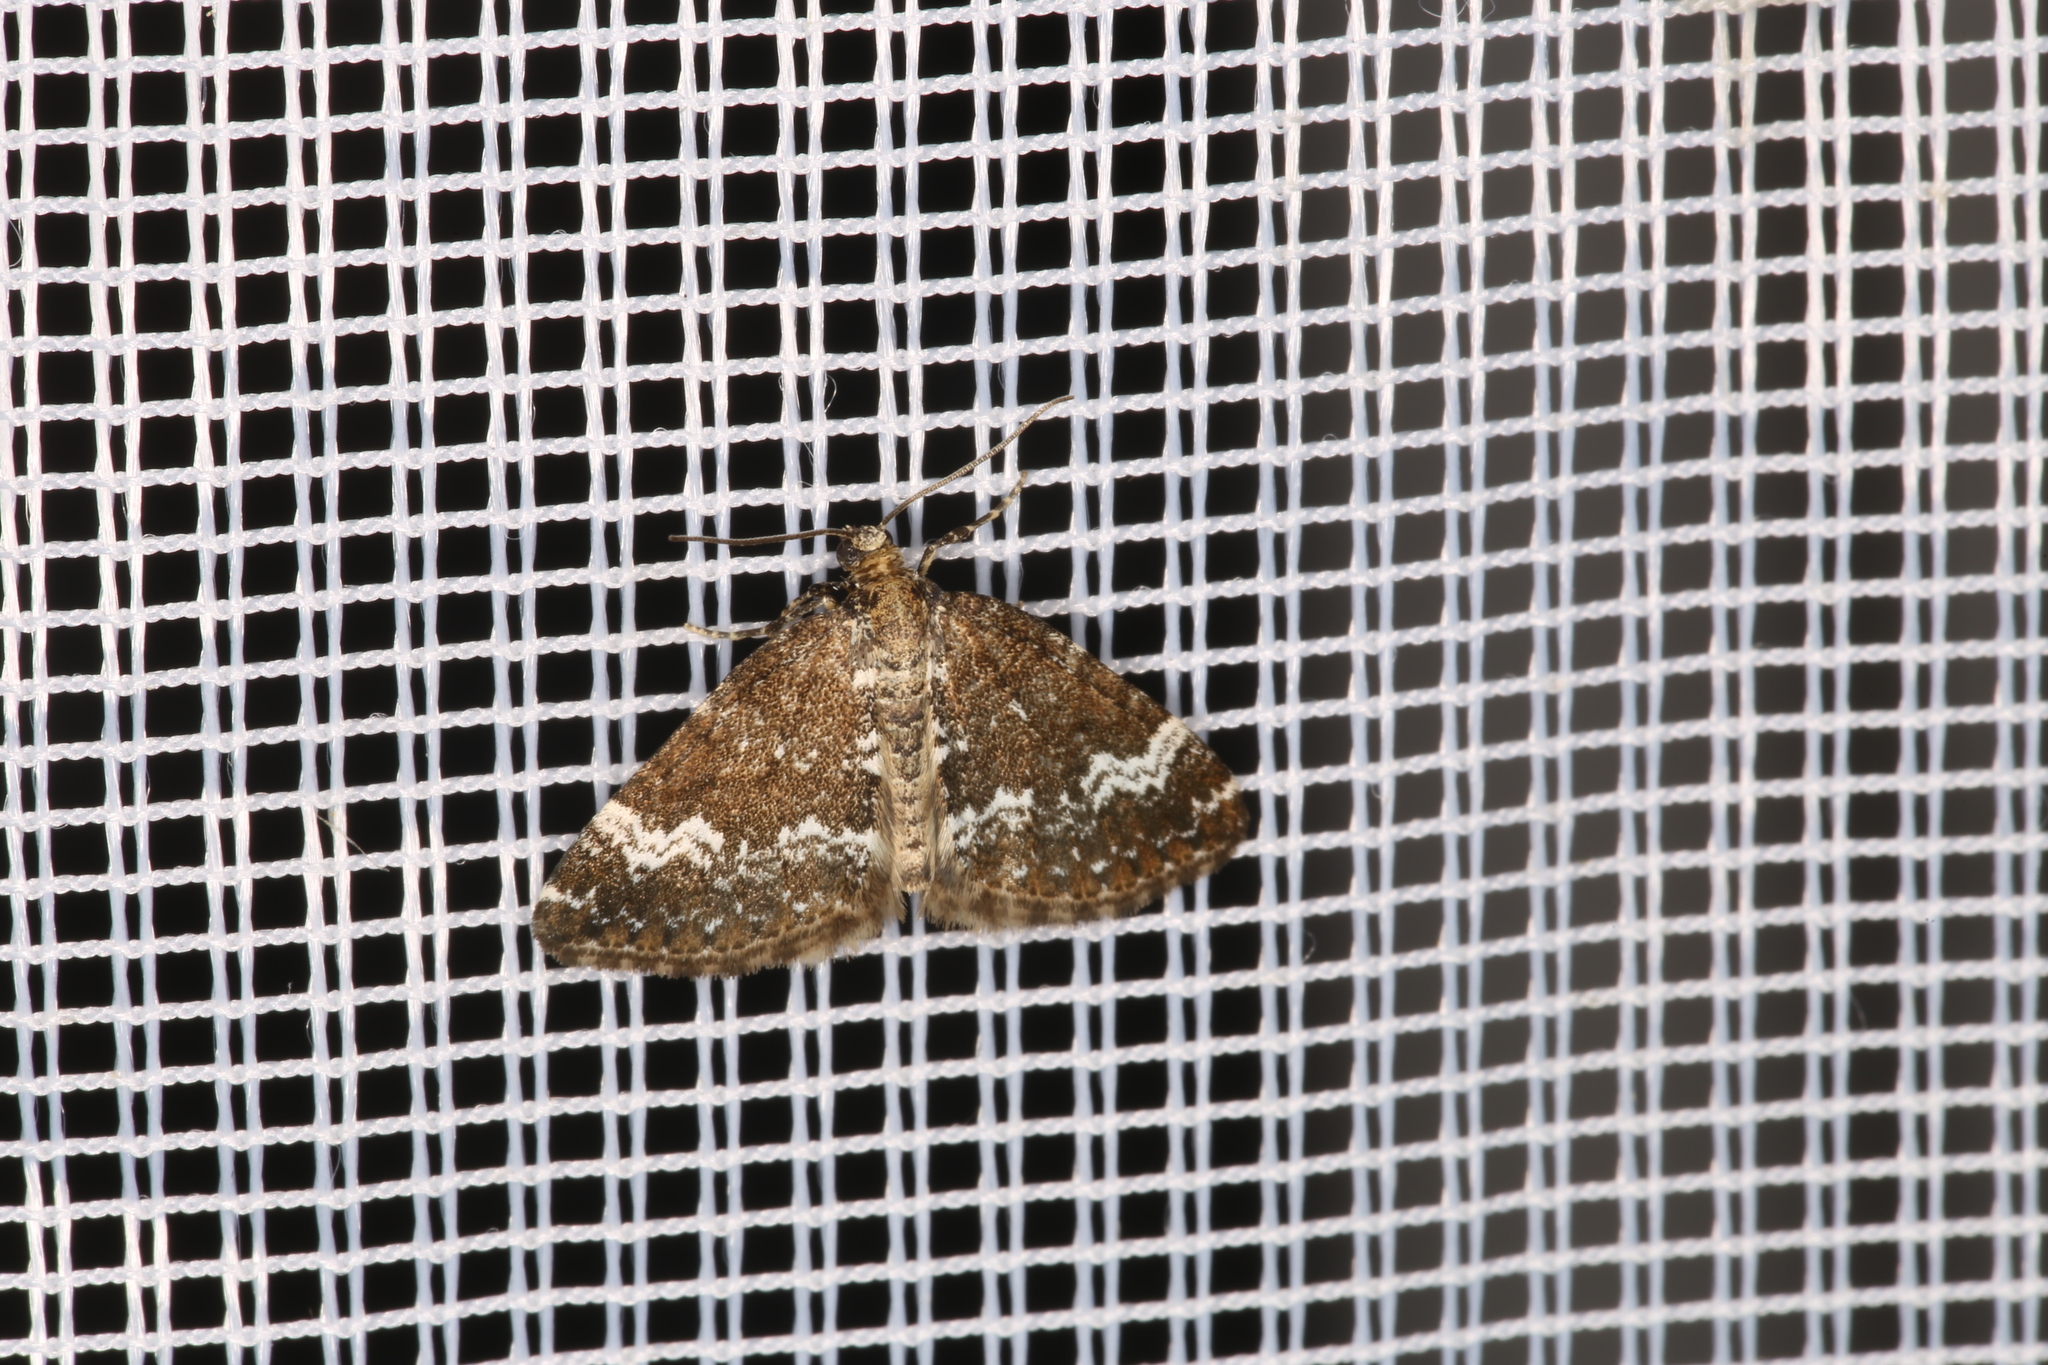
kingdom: Animalia
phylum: Arthropoda
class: Insecta
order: Lepidoptera
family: Geometridae
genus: Perizoma
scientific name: Perizoma alchemillata
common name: Small rivulet
